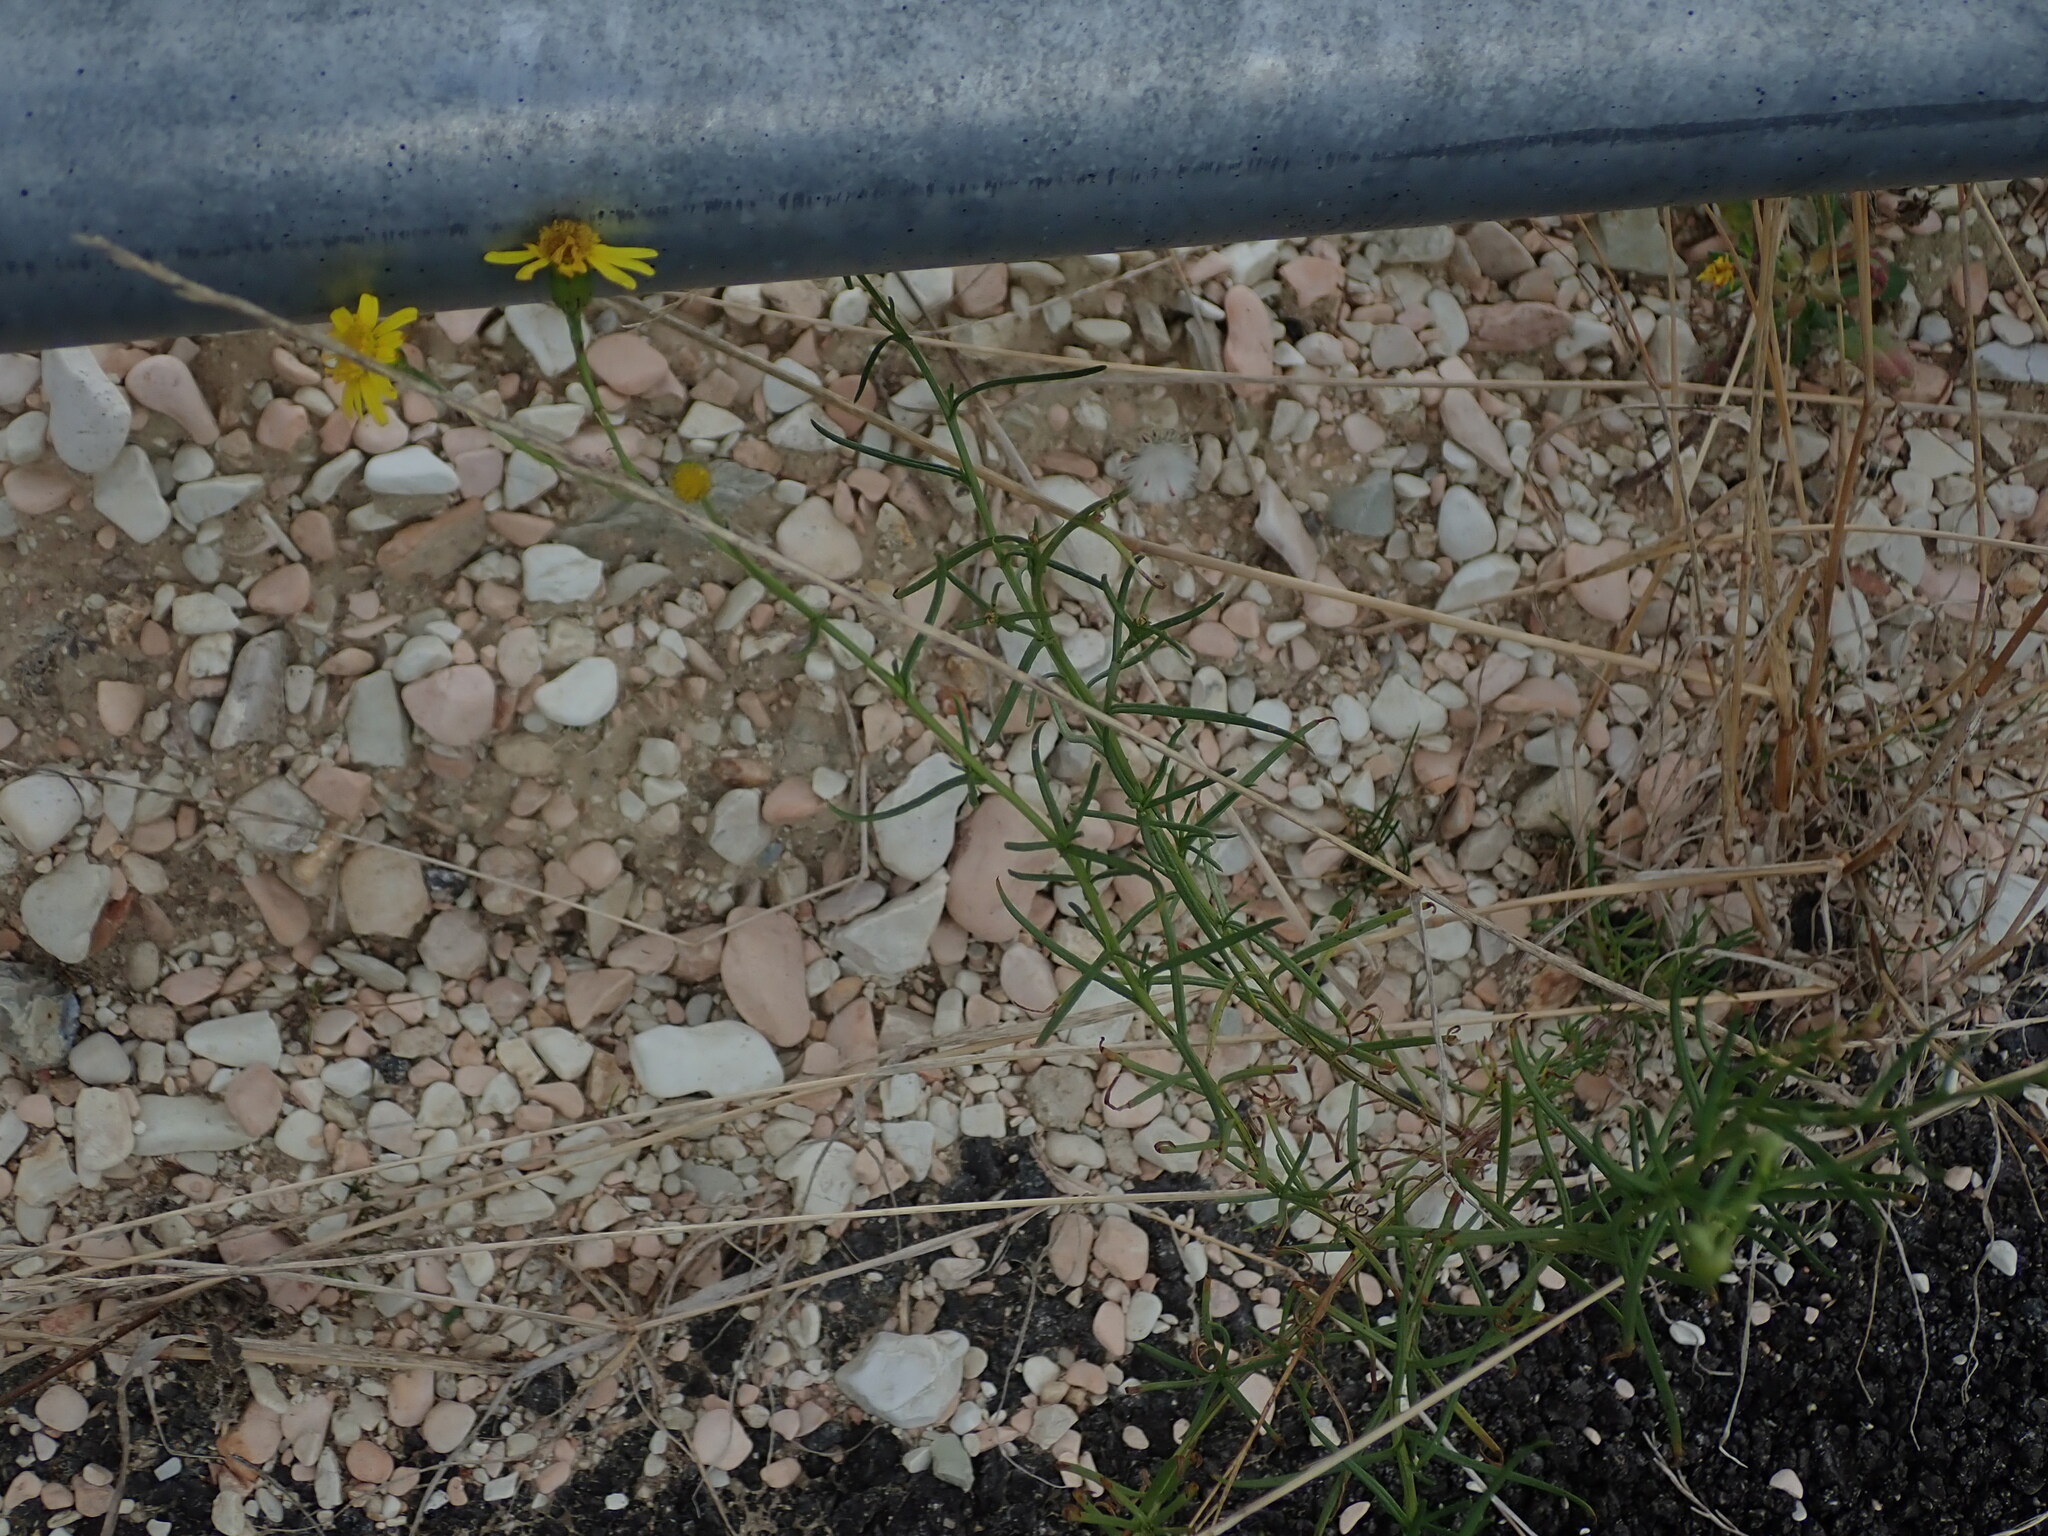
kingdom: Plantae
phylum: Tracheophyta
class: Magnoliopsida
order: Asterales
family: Asteraceae
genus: Senecio
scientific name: Senecio inaequidens
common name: Narrow-leaved ragwort
